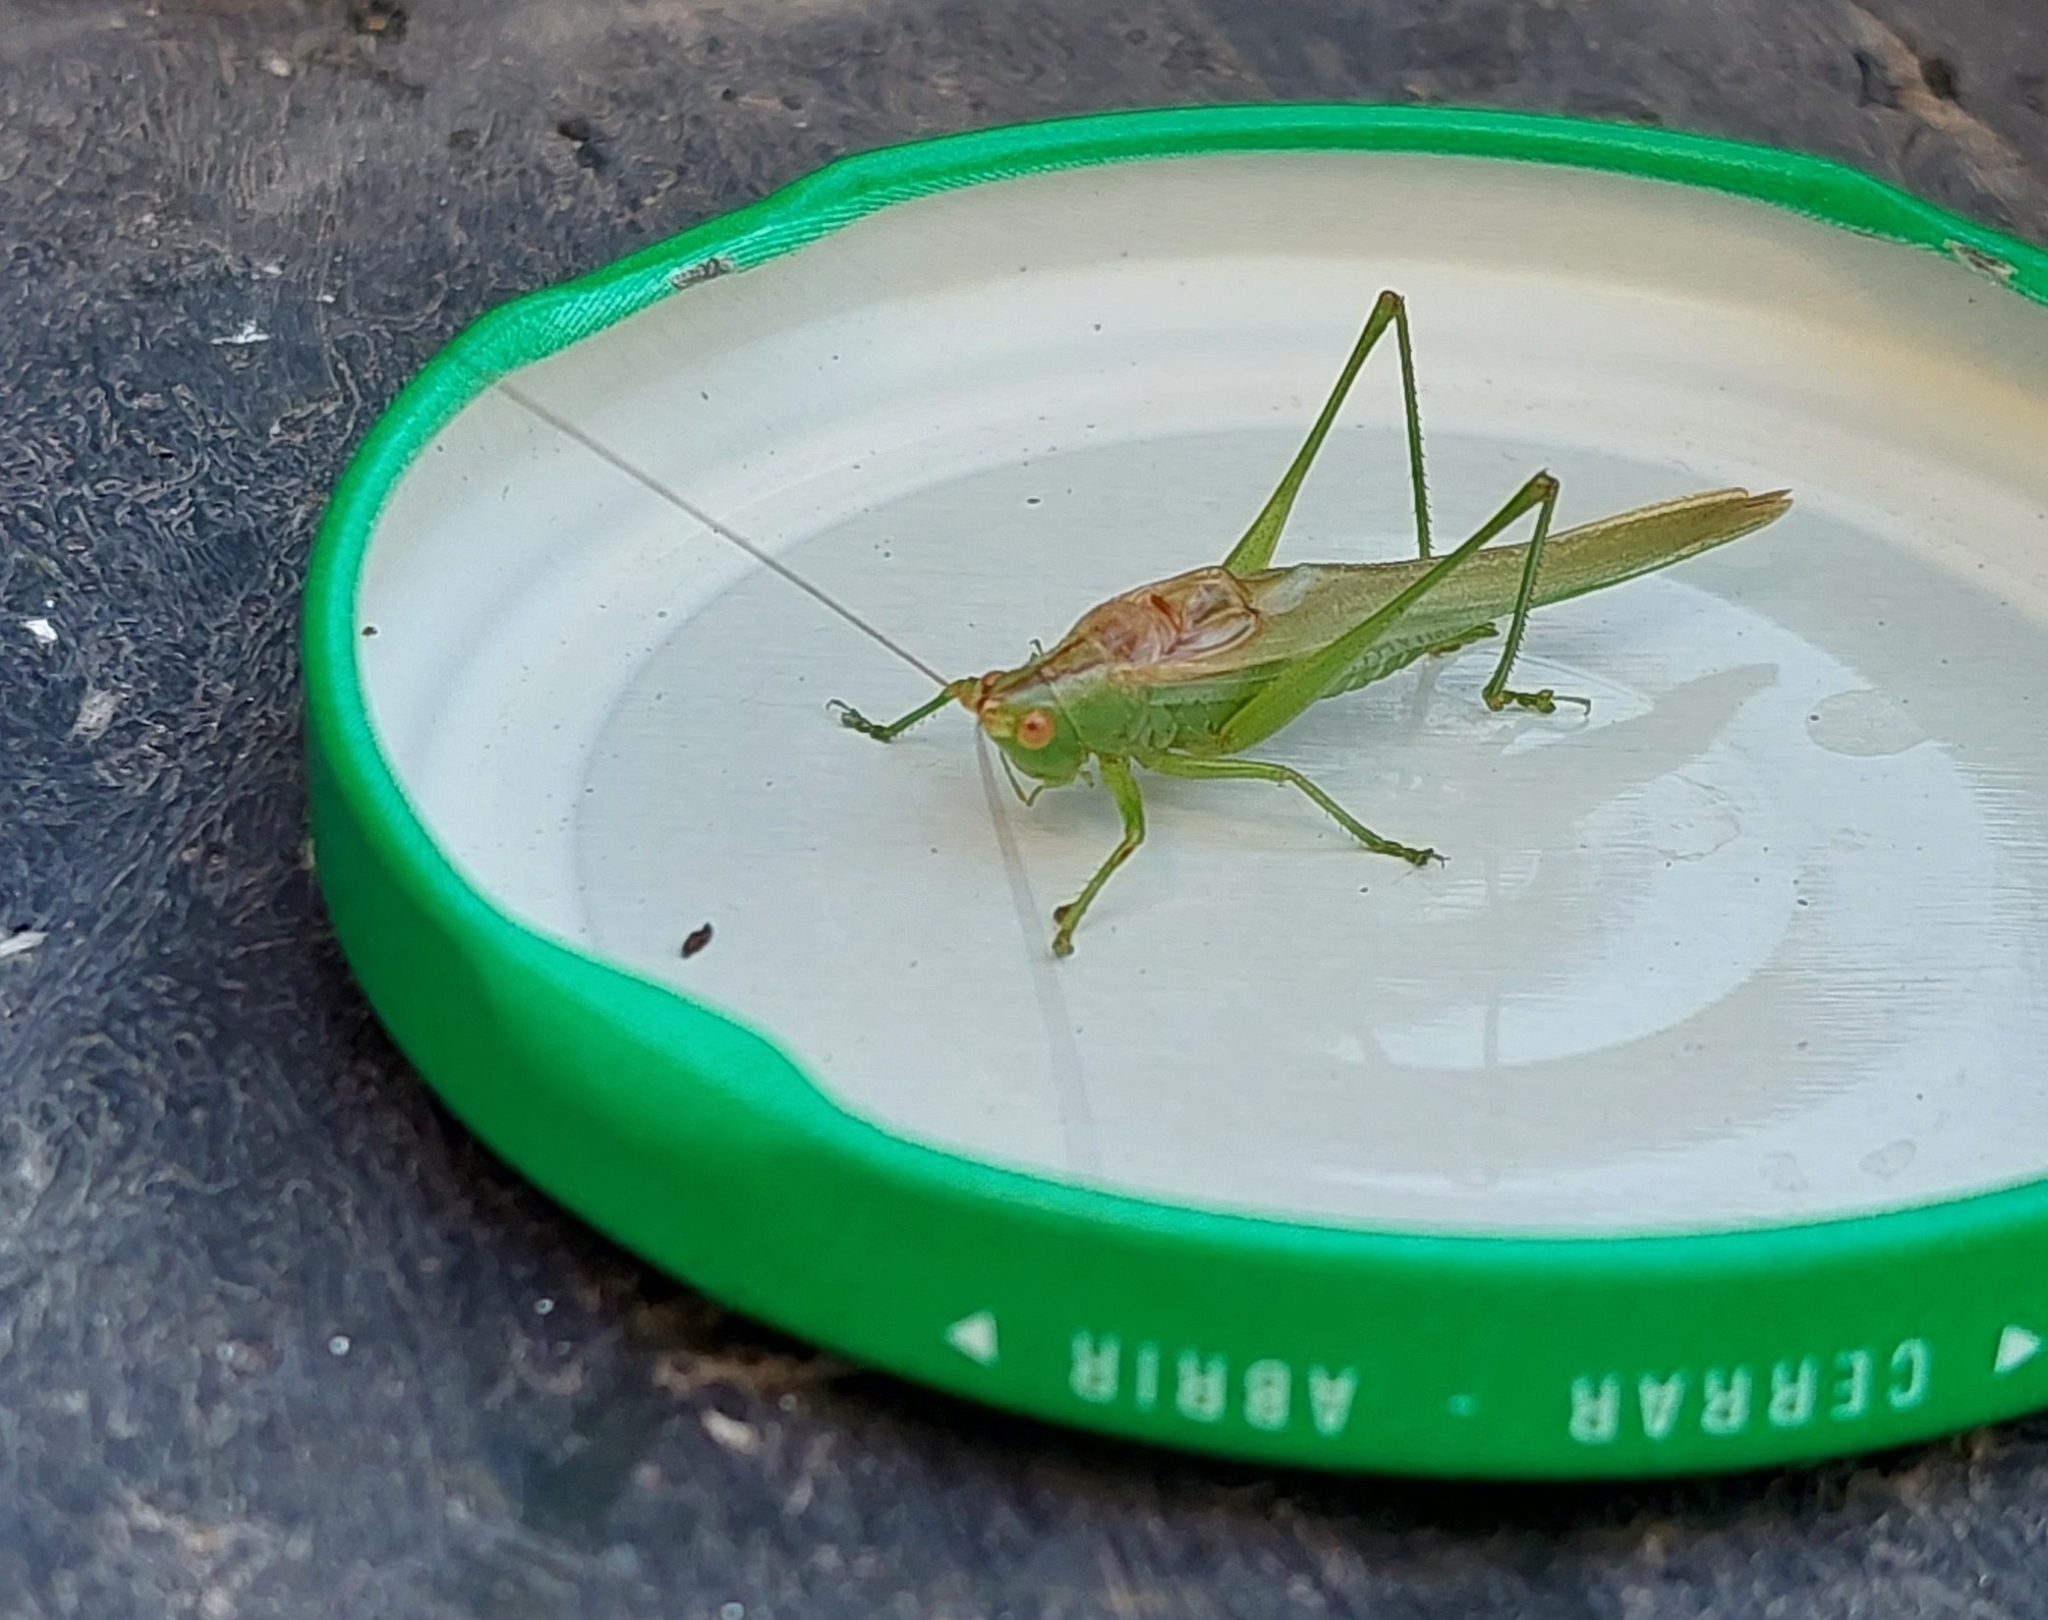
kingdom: Animalia
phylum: Arthropoda
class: Insecta
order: Orthoptera
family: Tettigoniidae
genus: Conocephalus
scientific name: Conocephalus longipes
